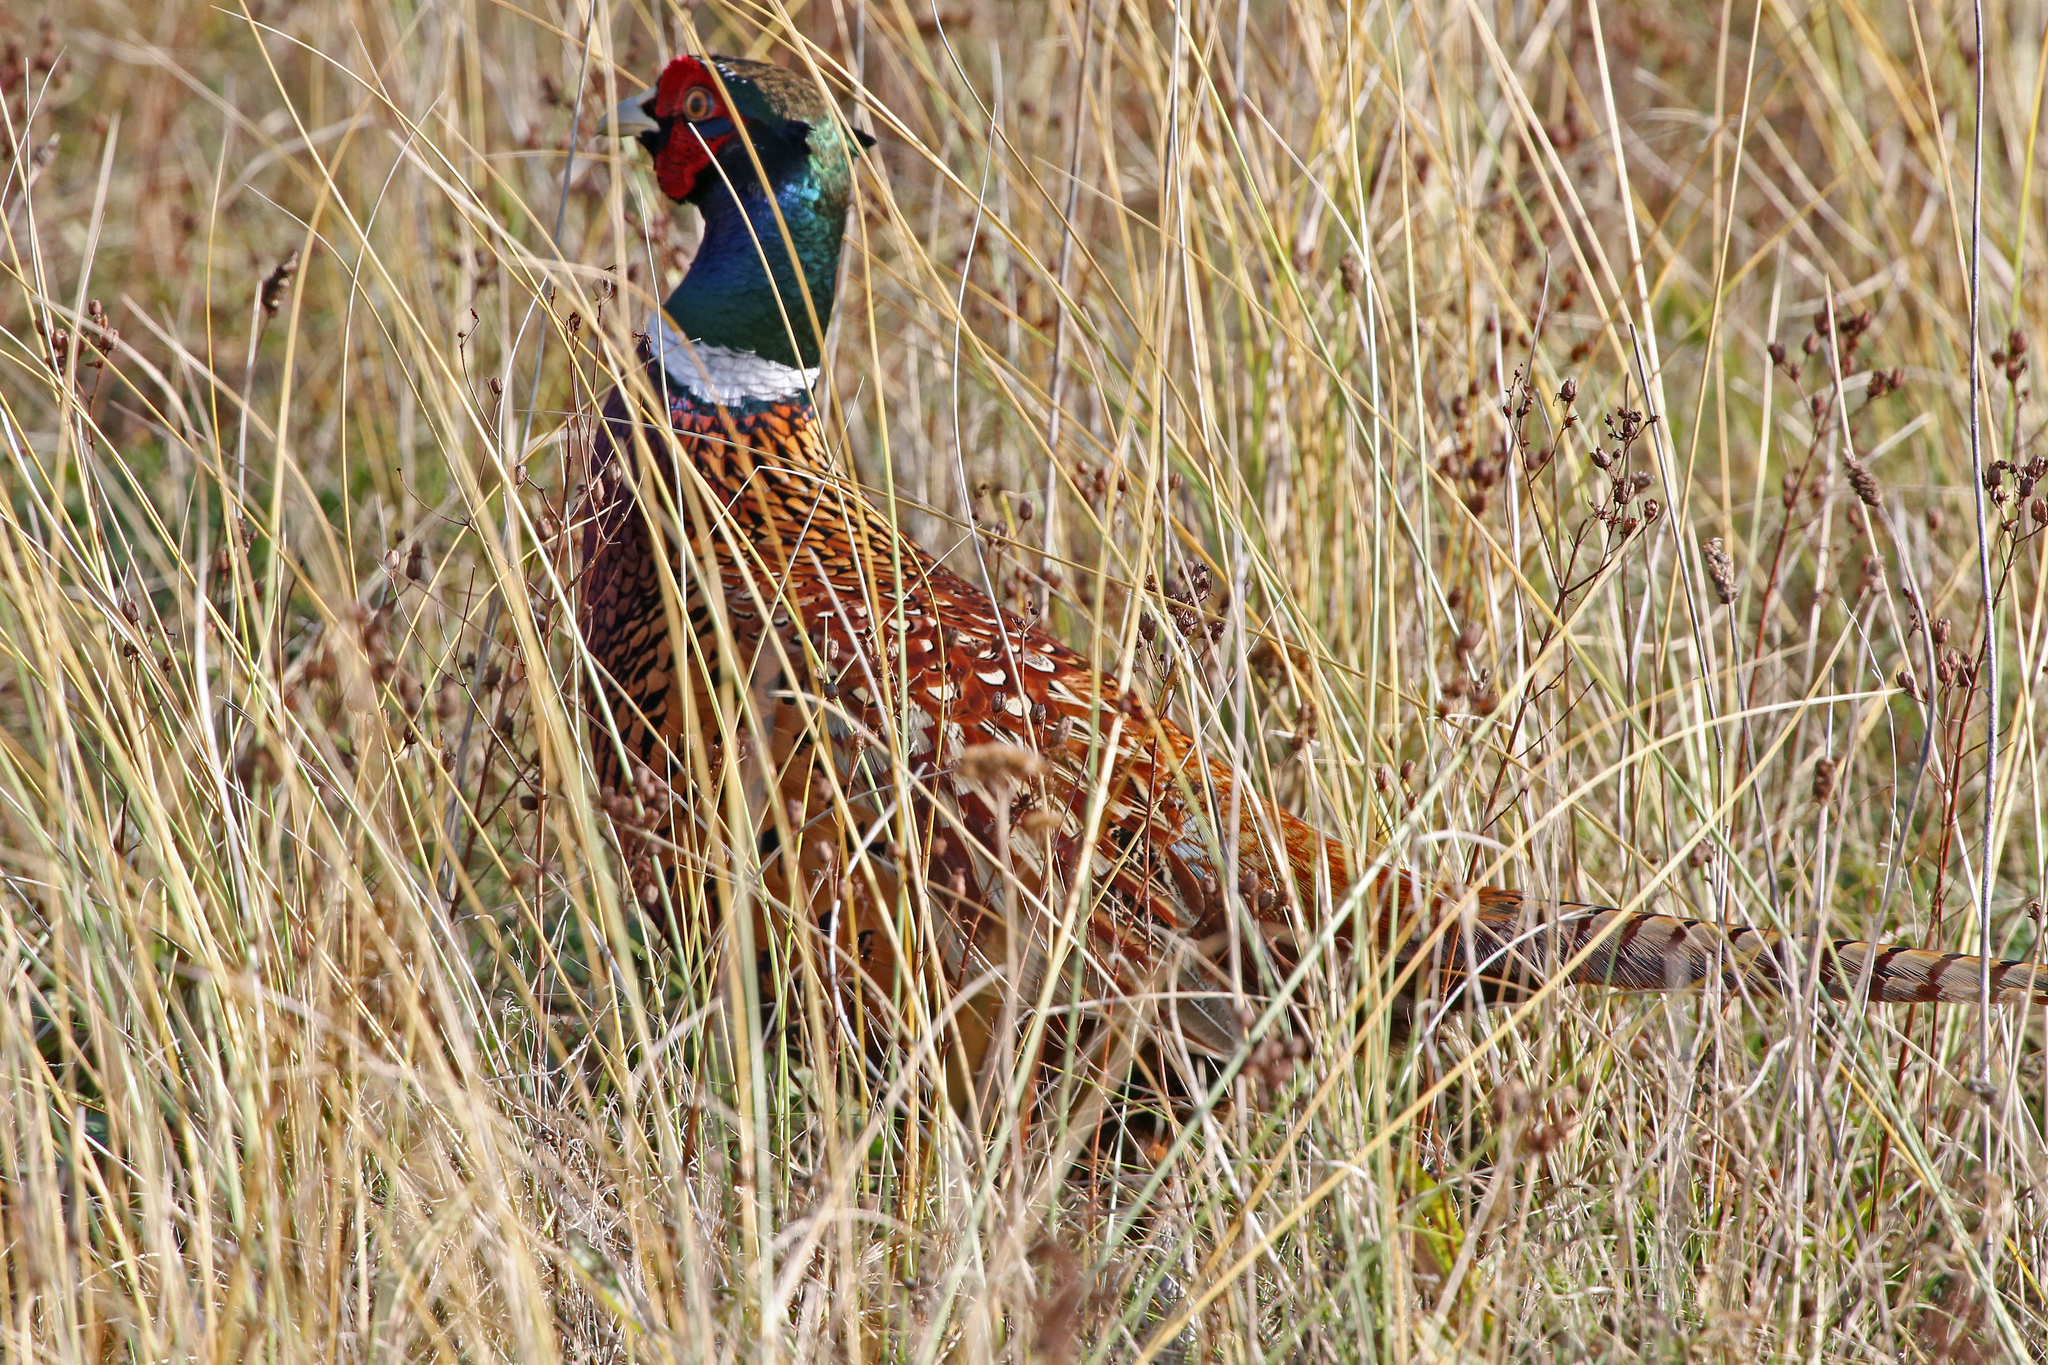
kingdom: Animalia
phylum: Chordata
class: Aves
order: Galliformes
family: Phasianidae
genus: Phasianus
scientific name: Phasianus colchicus
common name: Common pheasant
